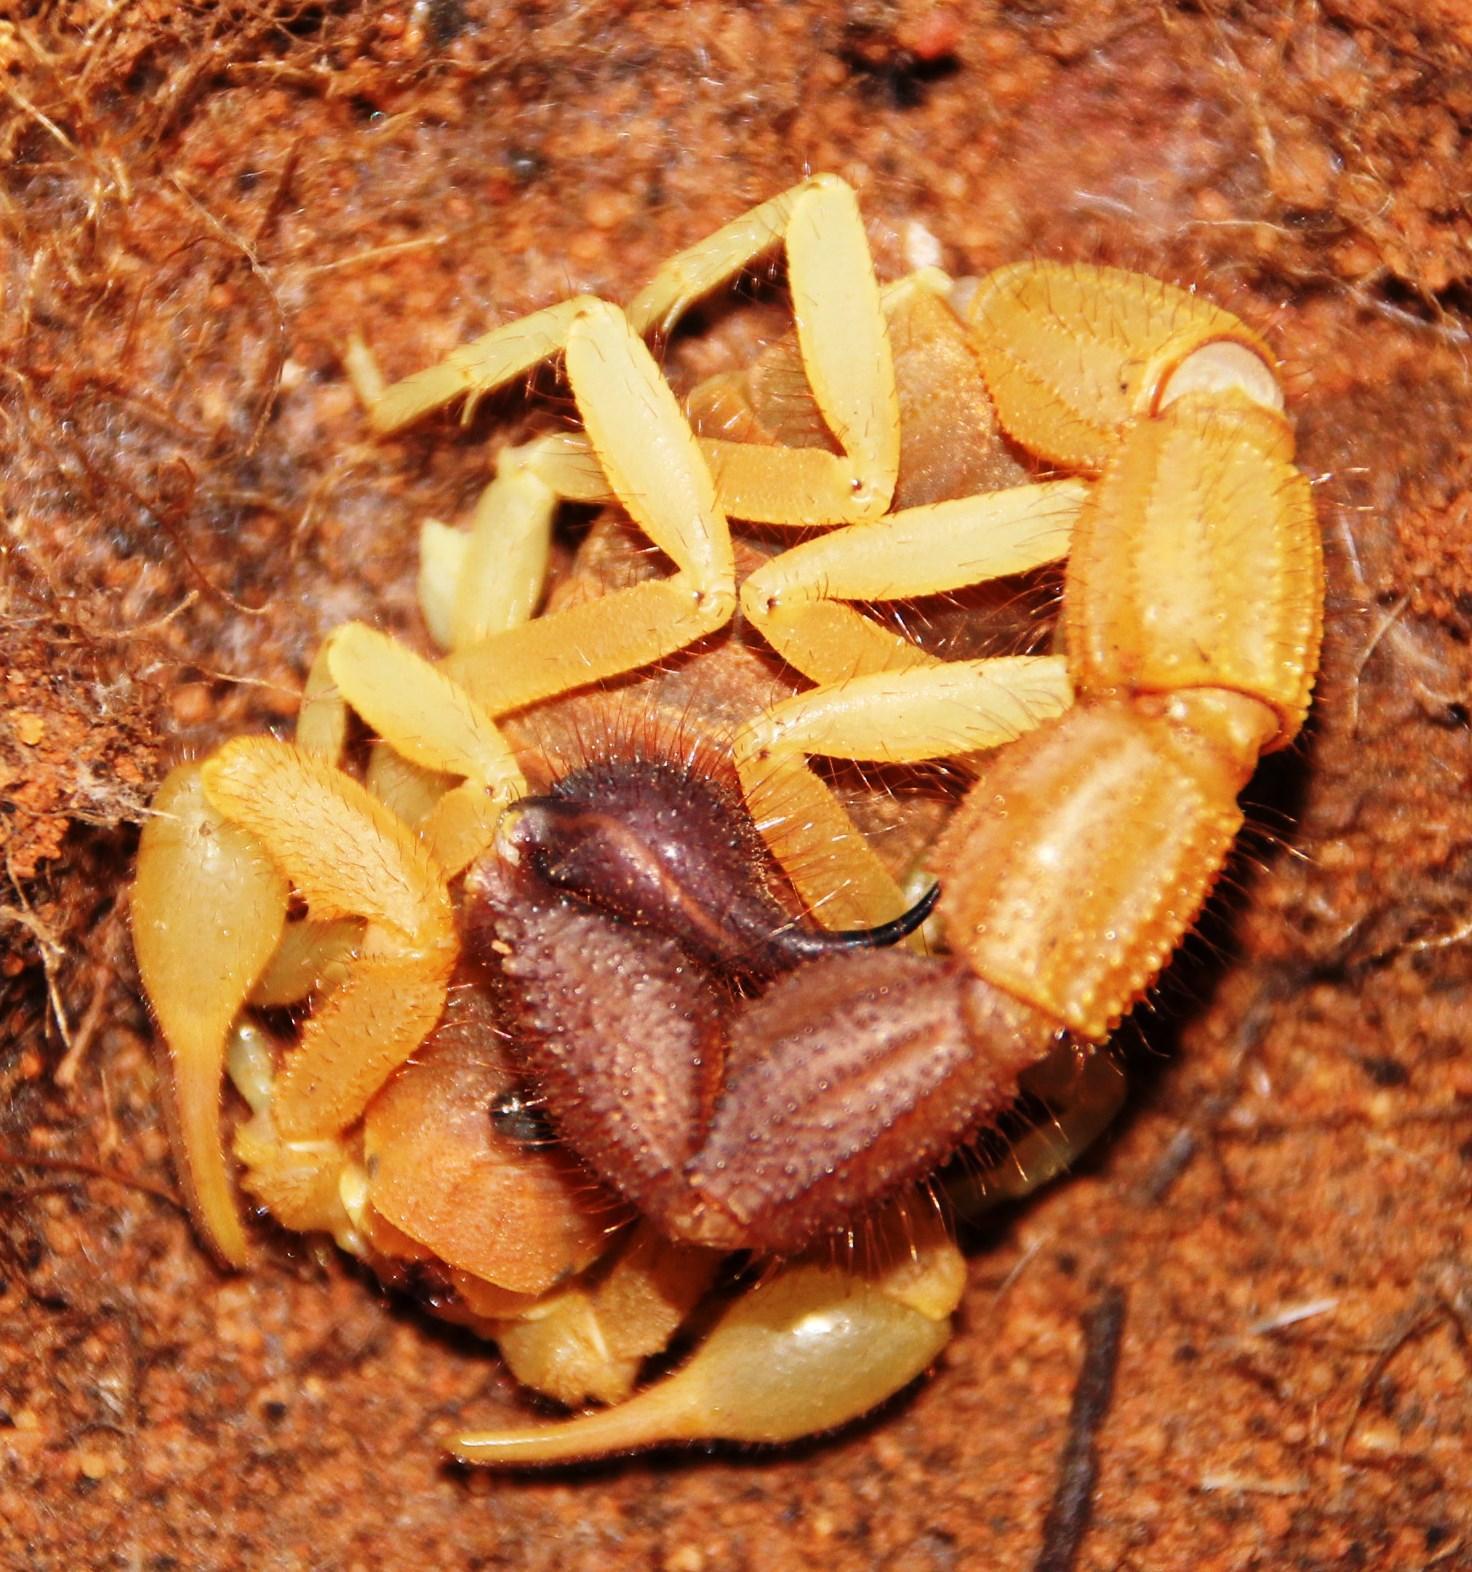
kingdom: Animalia
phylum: Arthropoda
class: Arachnida
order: Scorpiones
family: Buthidae
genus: Parabuthus
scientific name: Parabuthus capensis
